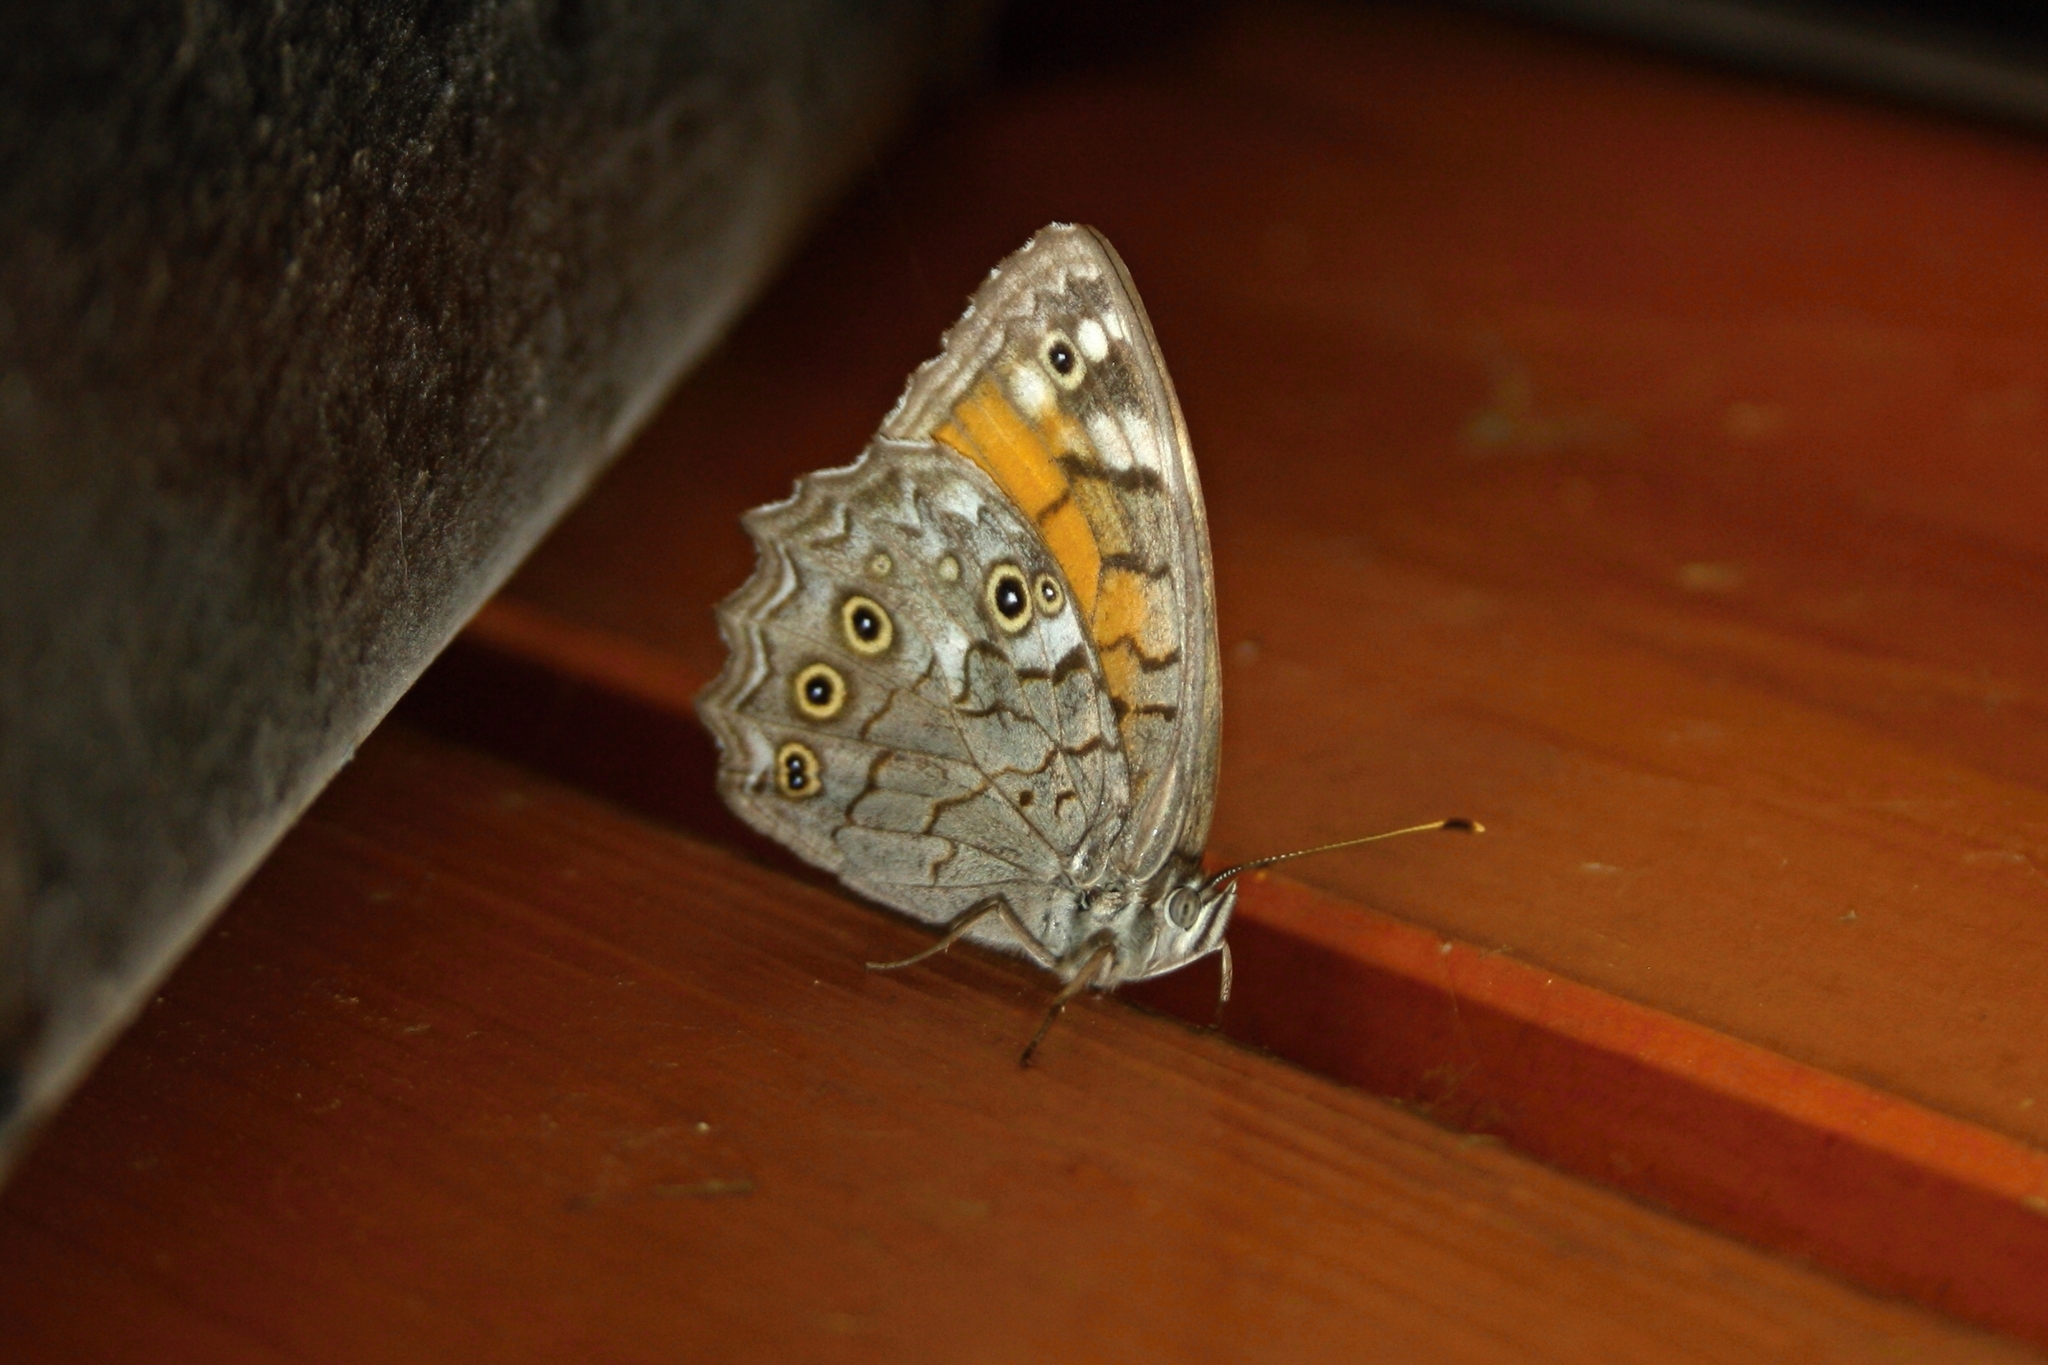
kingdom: Animalia
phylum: Arthropoda
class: Insecta
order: Lepidoptera
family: Nymphalidae
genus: Kirinia
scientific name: Kirinia roxelana
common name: Lattice brown
